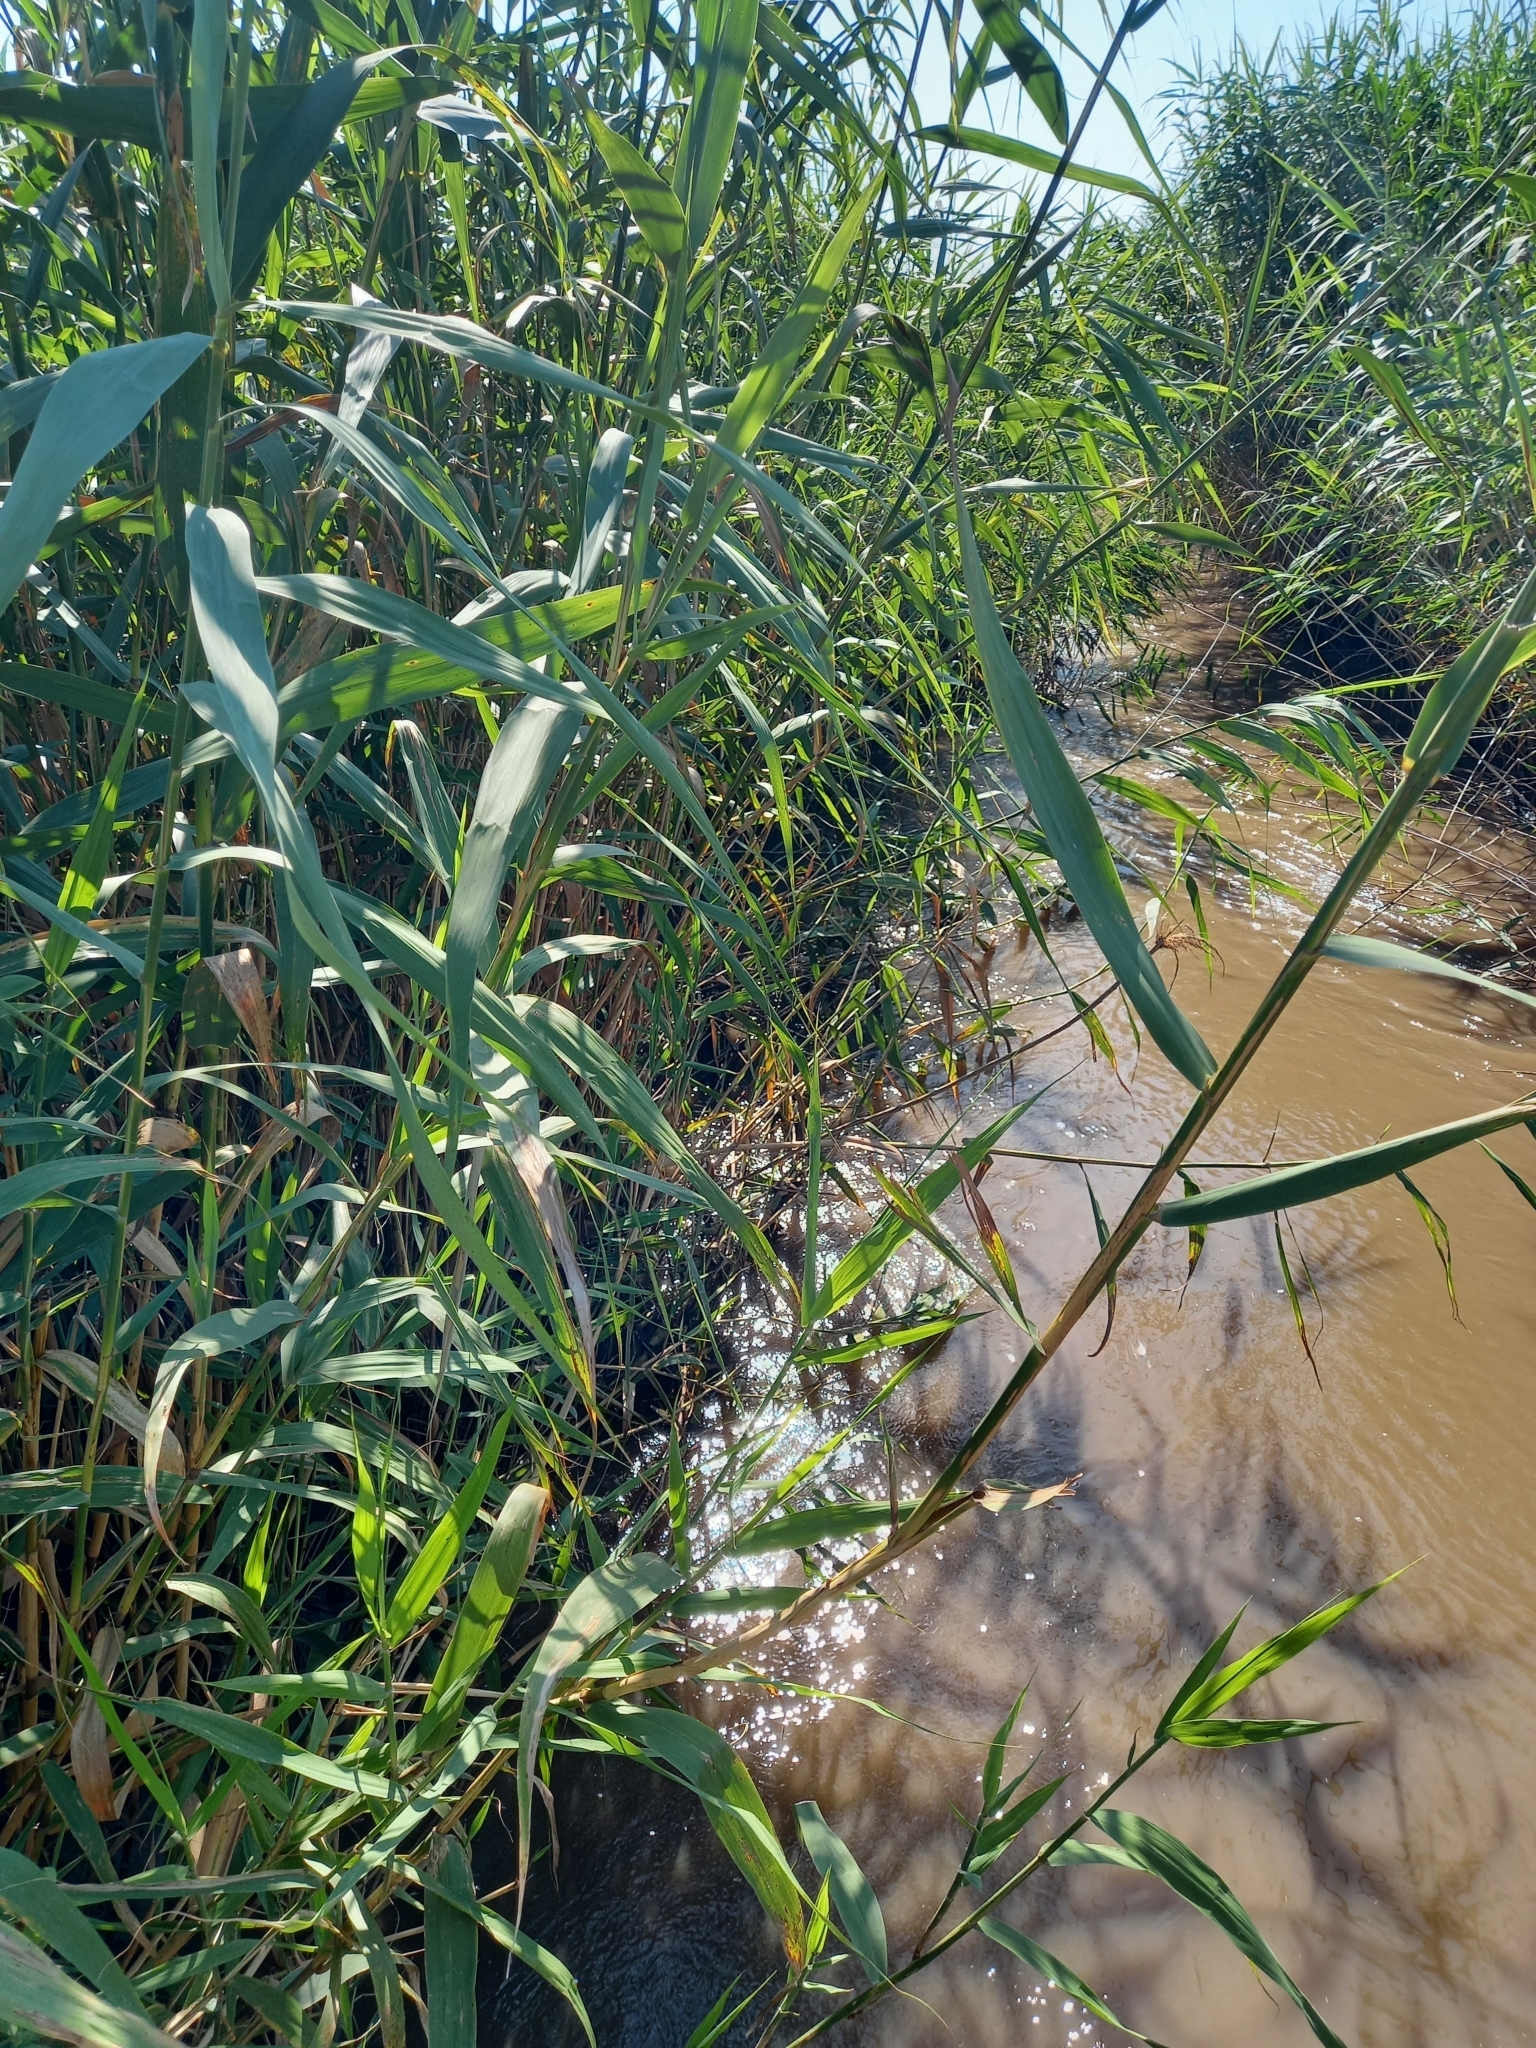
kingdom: Plantae
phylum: Tracheophyta
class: Liliopsida
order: Poales
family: Poaceae
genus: Phragmites
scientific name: Phragmites australis
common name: Common reed
